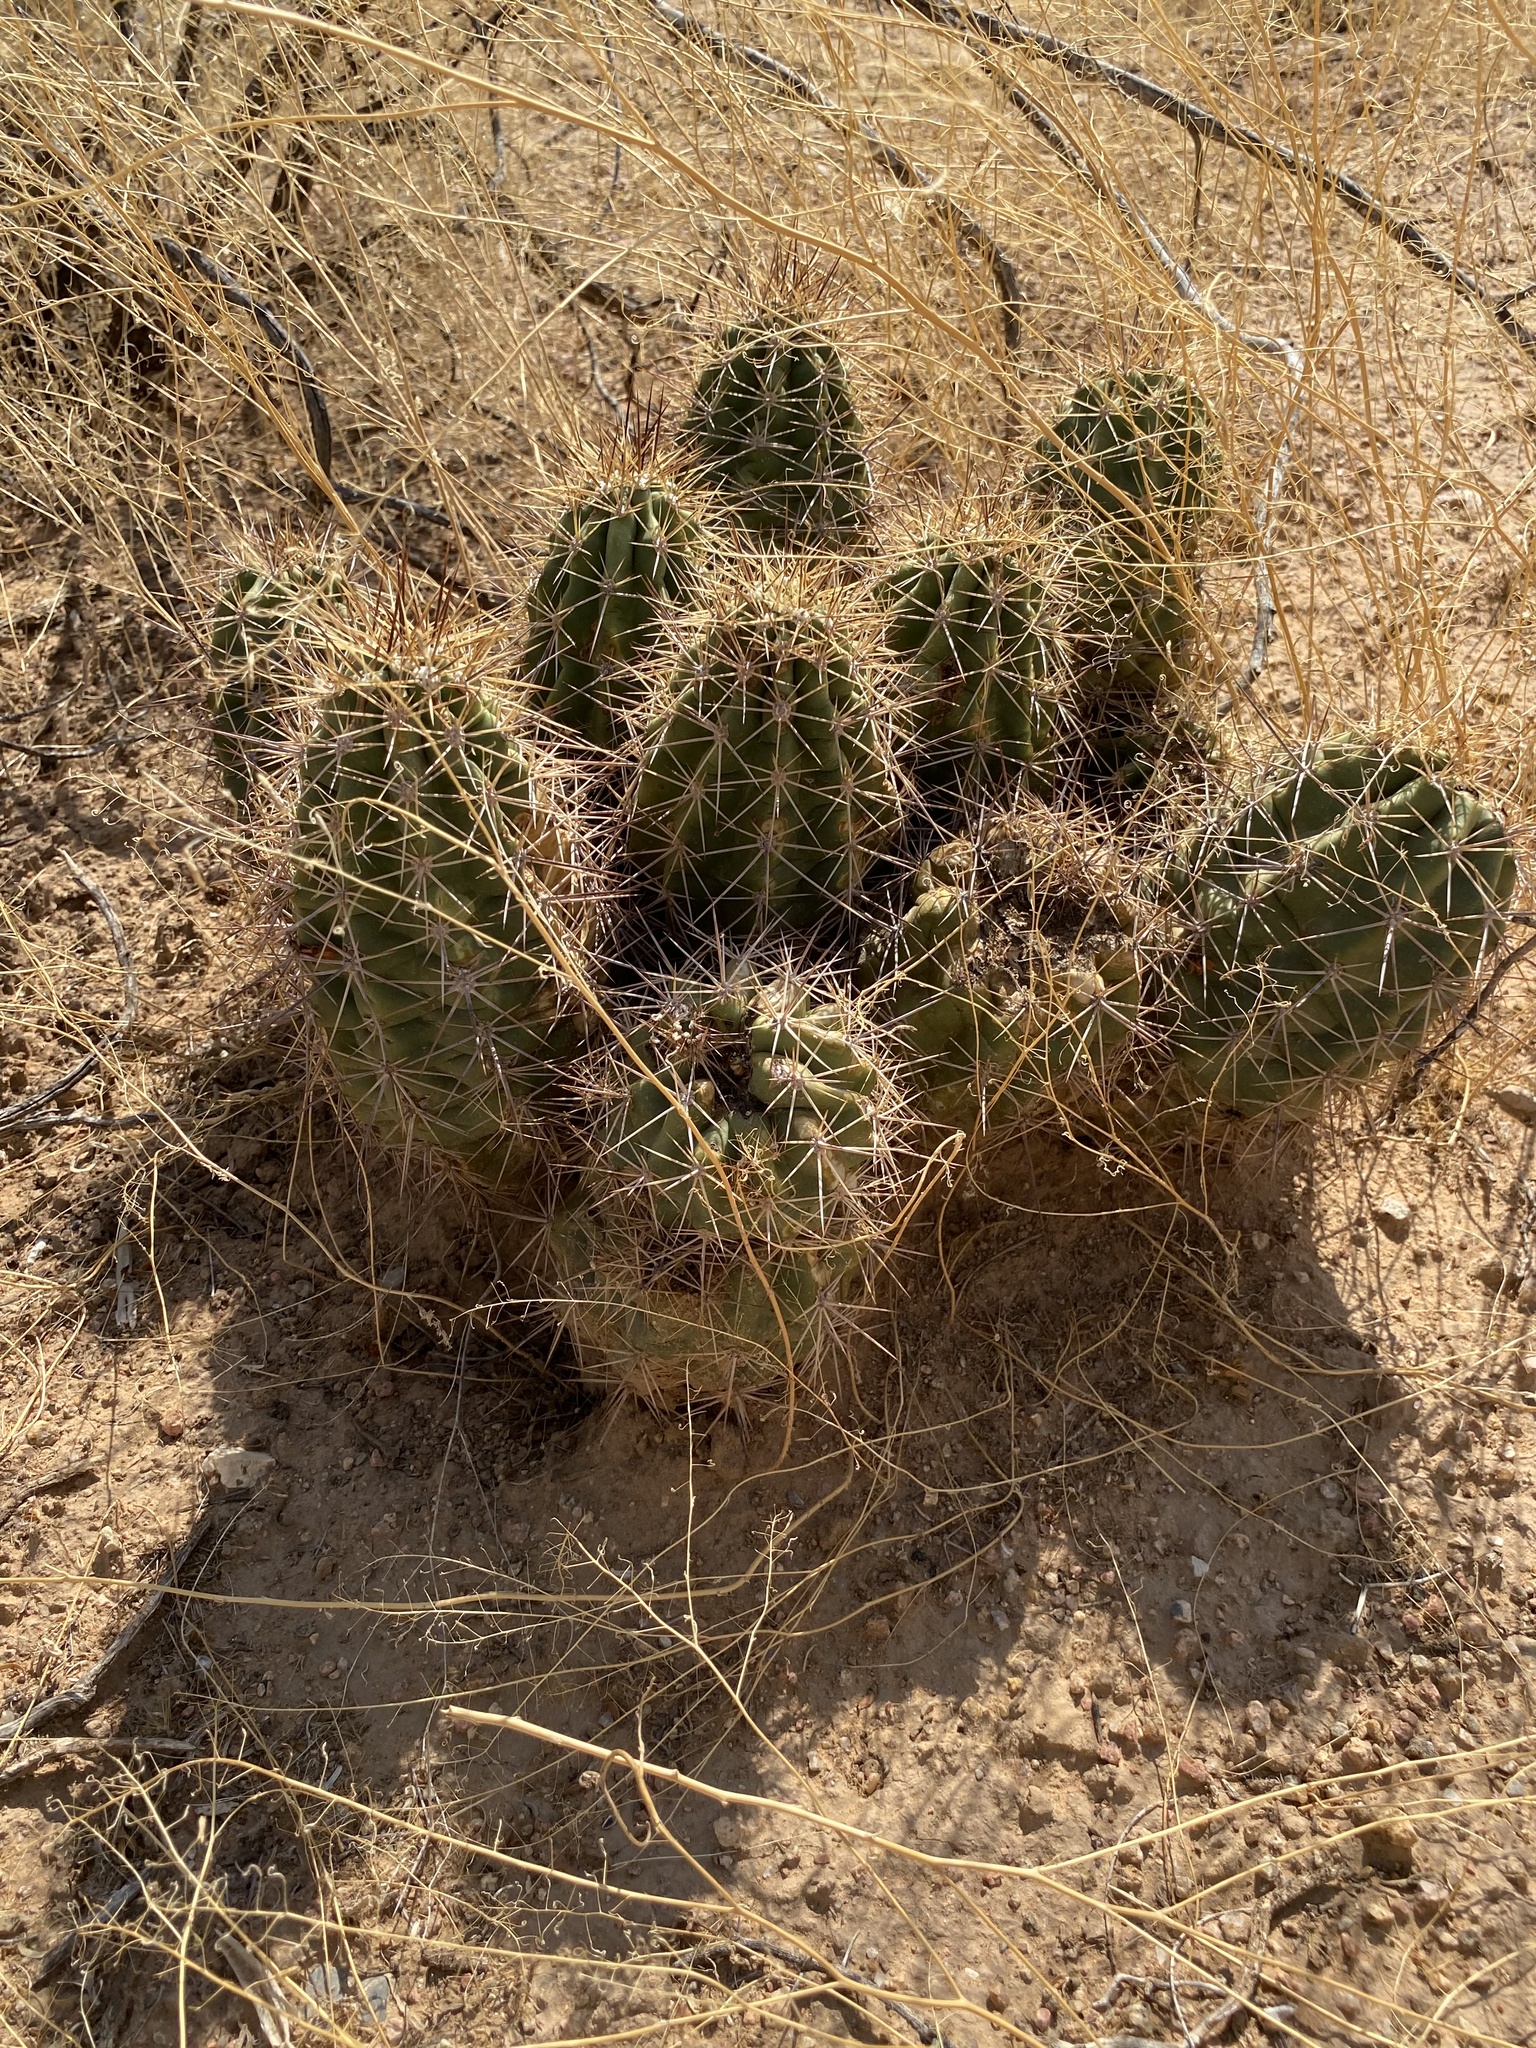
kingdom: Plantae
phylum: Tracheophyta
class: Magnoliopsida
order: Caryophyllales
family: Cactaceae
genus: Echinocereus
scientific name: Echinocereus coccineus
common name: Scarlet hedgehog cactus
